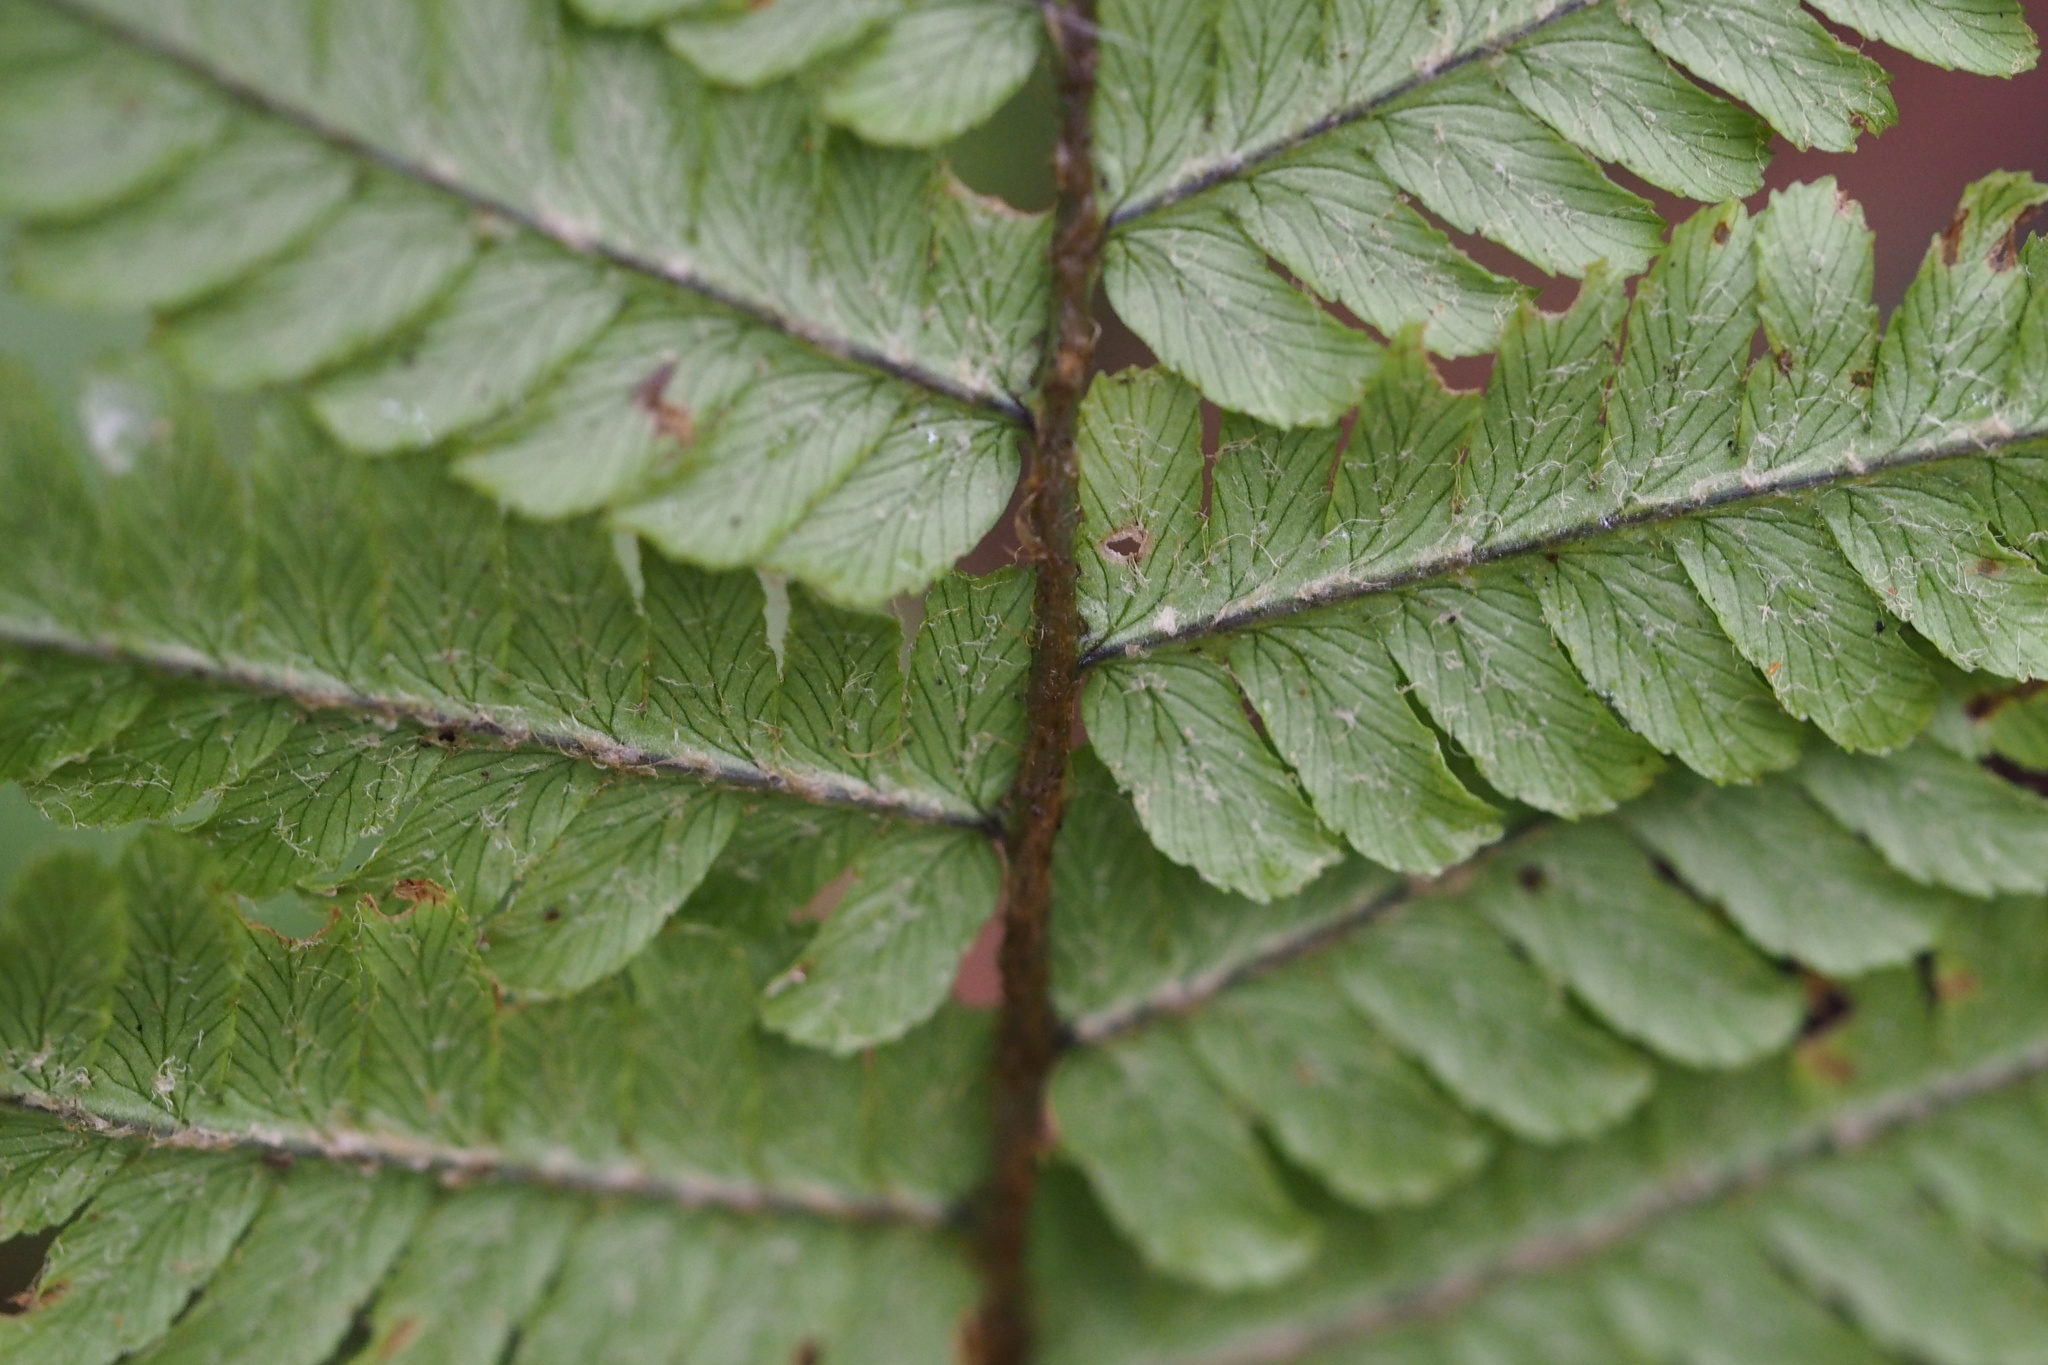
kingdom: Plantae
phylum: Tracheophyta
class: Polypodiopsida
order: Polypodiales
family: Dryopteridaceae
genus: Dryopteris
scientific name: Dryopteris crassirhizoma
